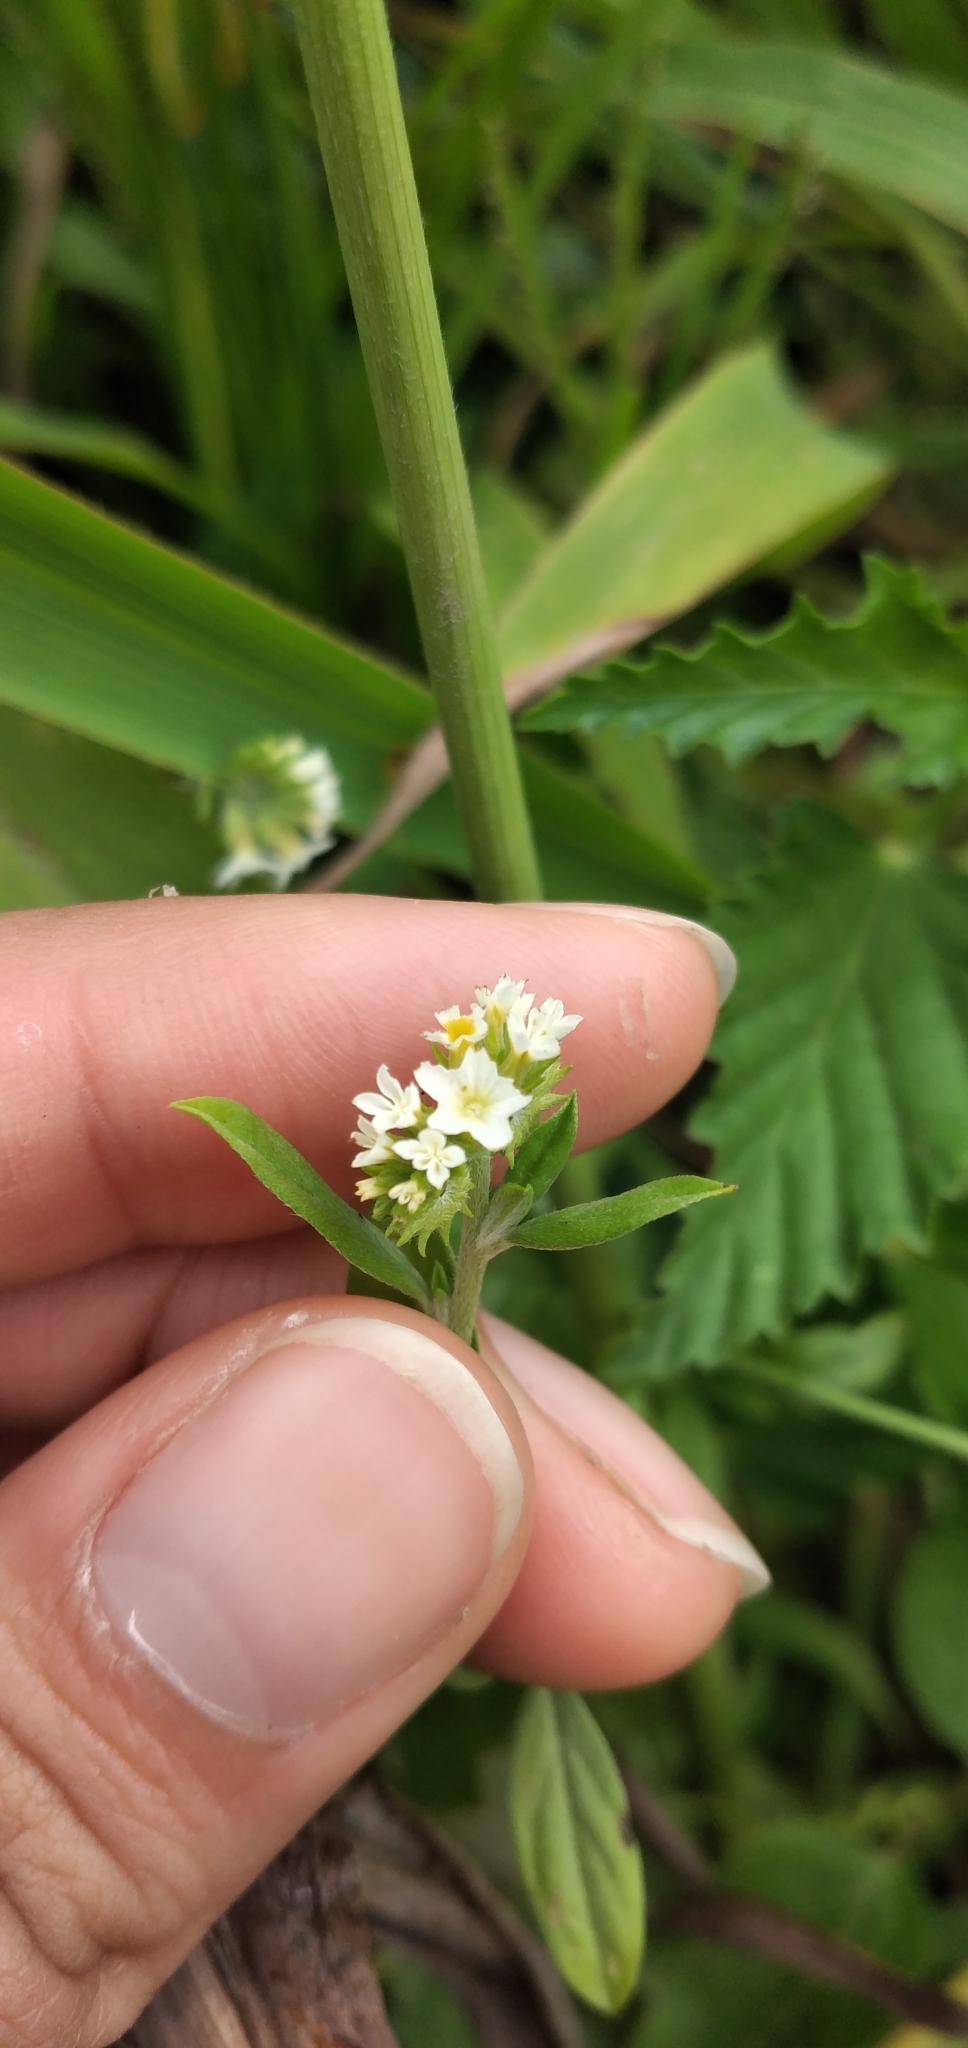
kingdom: Plantae
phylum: Tracheophyta
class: Magnoliopsida
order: Boraginales
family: Heliotropiaceae
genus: Euploca
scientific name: Euploca procumbens
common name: Fourspike heliotrope
